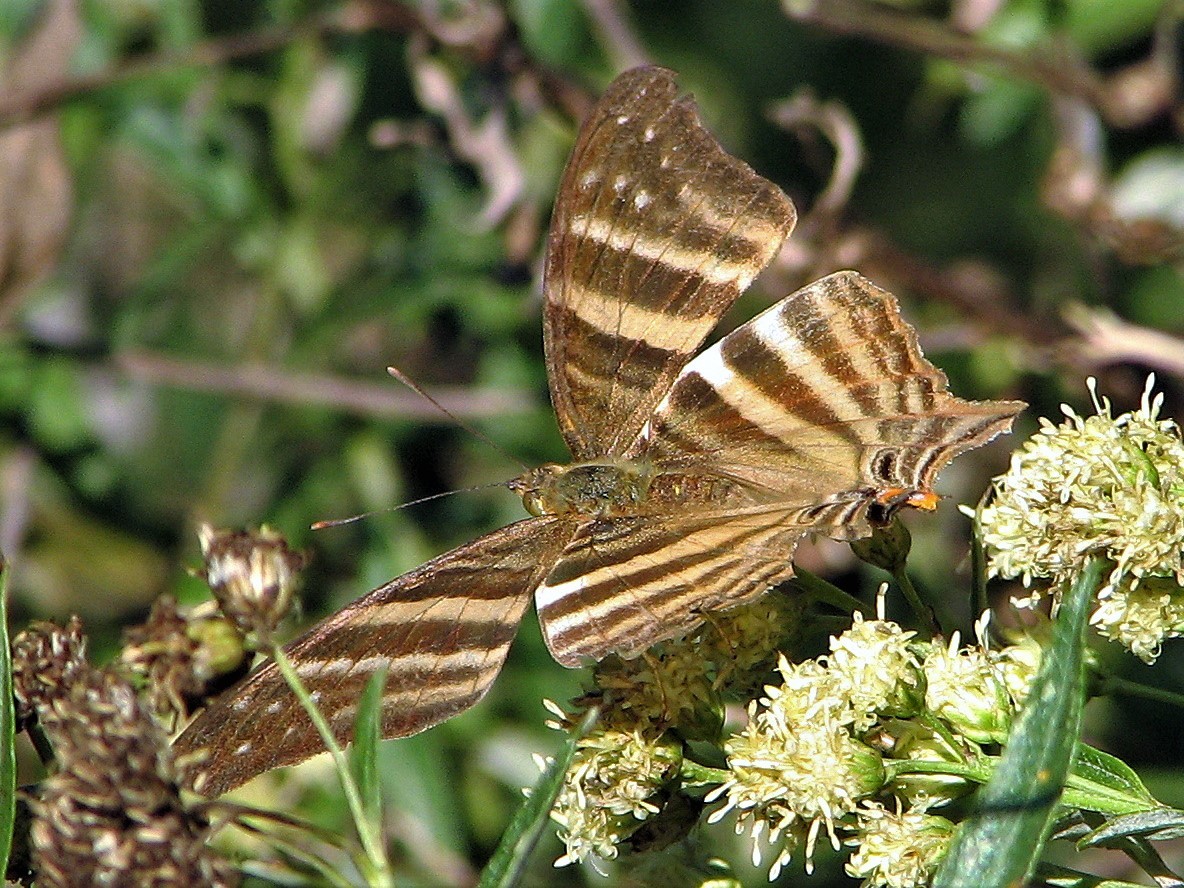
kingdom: Animalia
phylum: Arthropoda
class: Insecta
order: Lepidoptera
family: Nymphalidae
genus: Marpesia
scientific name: Marpesia chiron
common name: Many-banded daggerwing
